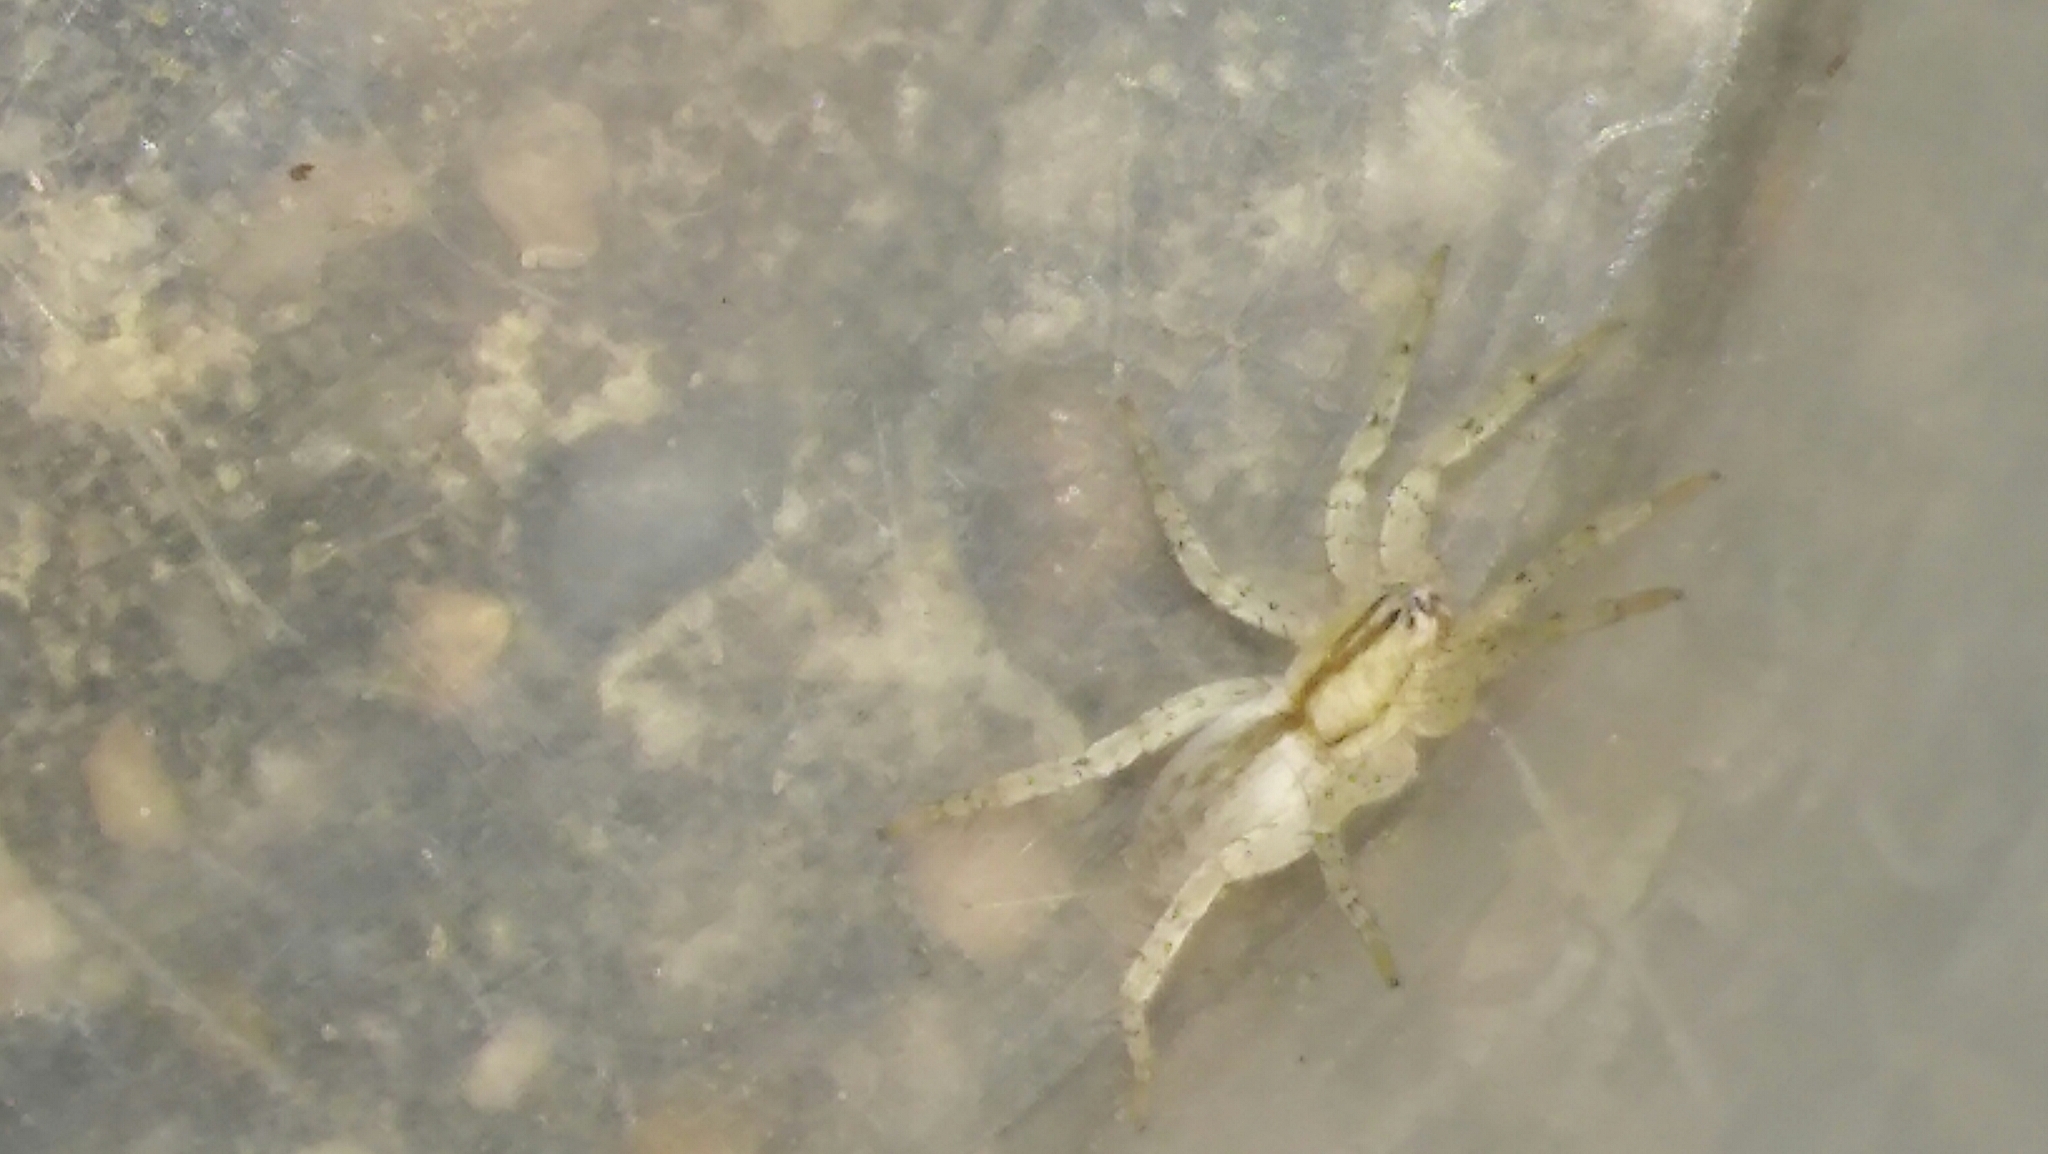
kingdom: Animalia
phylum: Arthropoda
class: Arachnida
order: Araneae
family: Anyphaenidae
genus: Arachosia
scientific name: Arachosia praesignis
